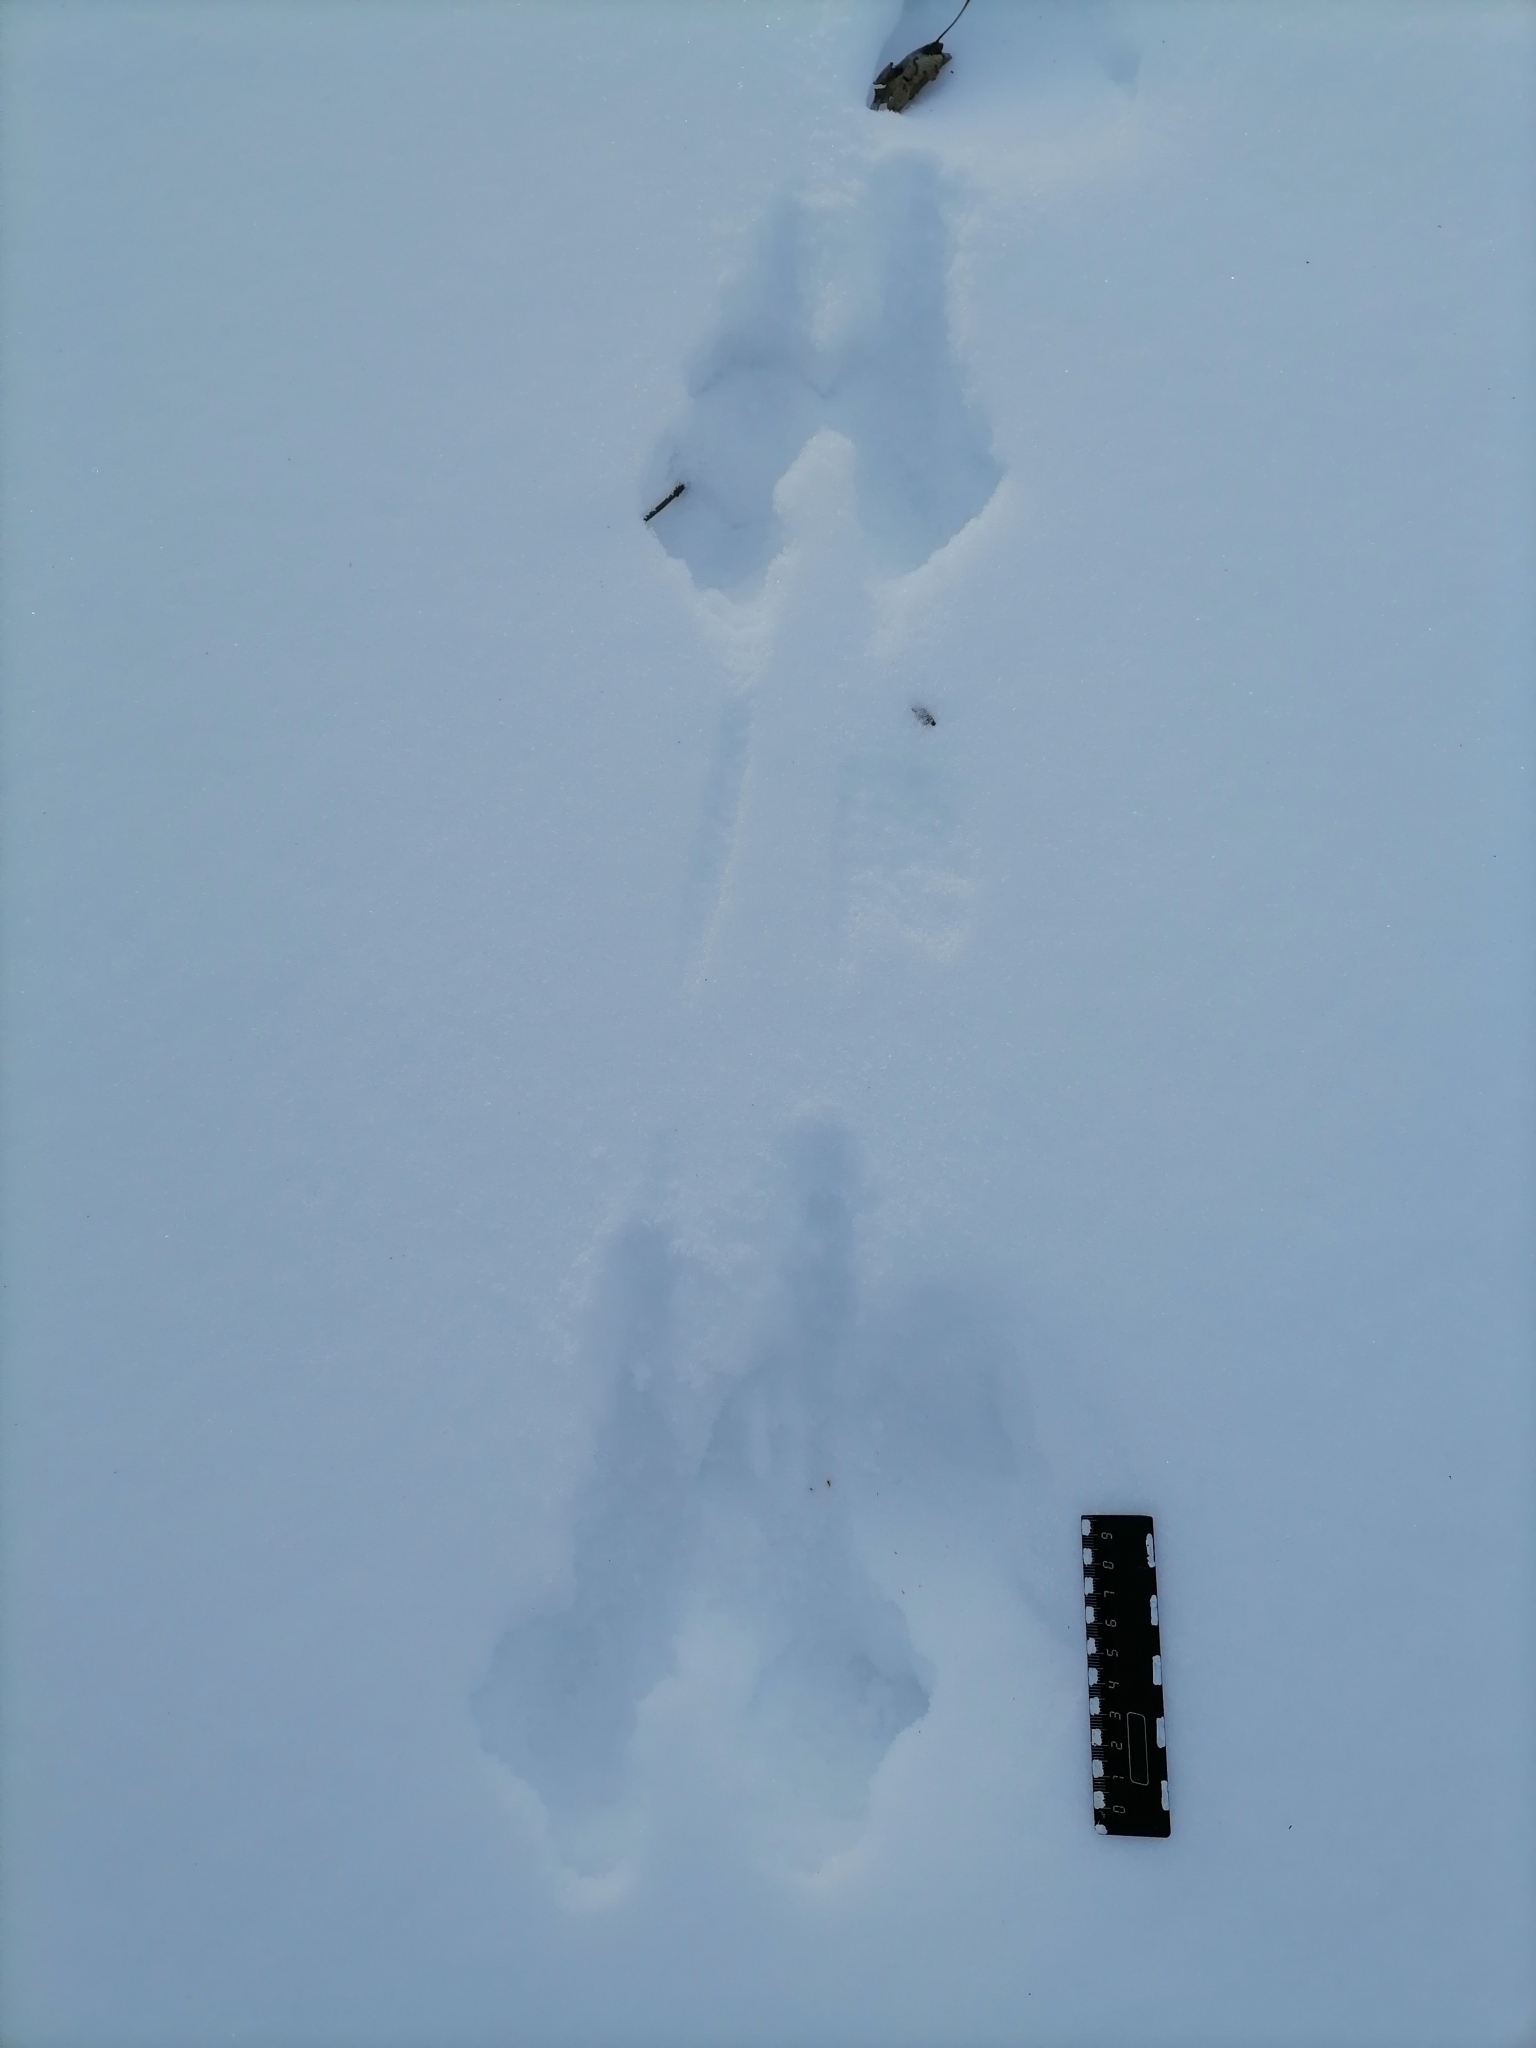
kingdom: Animalia
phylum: Chordata
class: Mammalia
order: Rodentia
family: Sciuridae
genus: Sciurus
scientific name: Sciurus vulgaris
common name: Eurasian red squirrel
